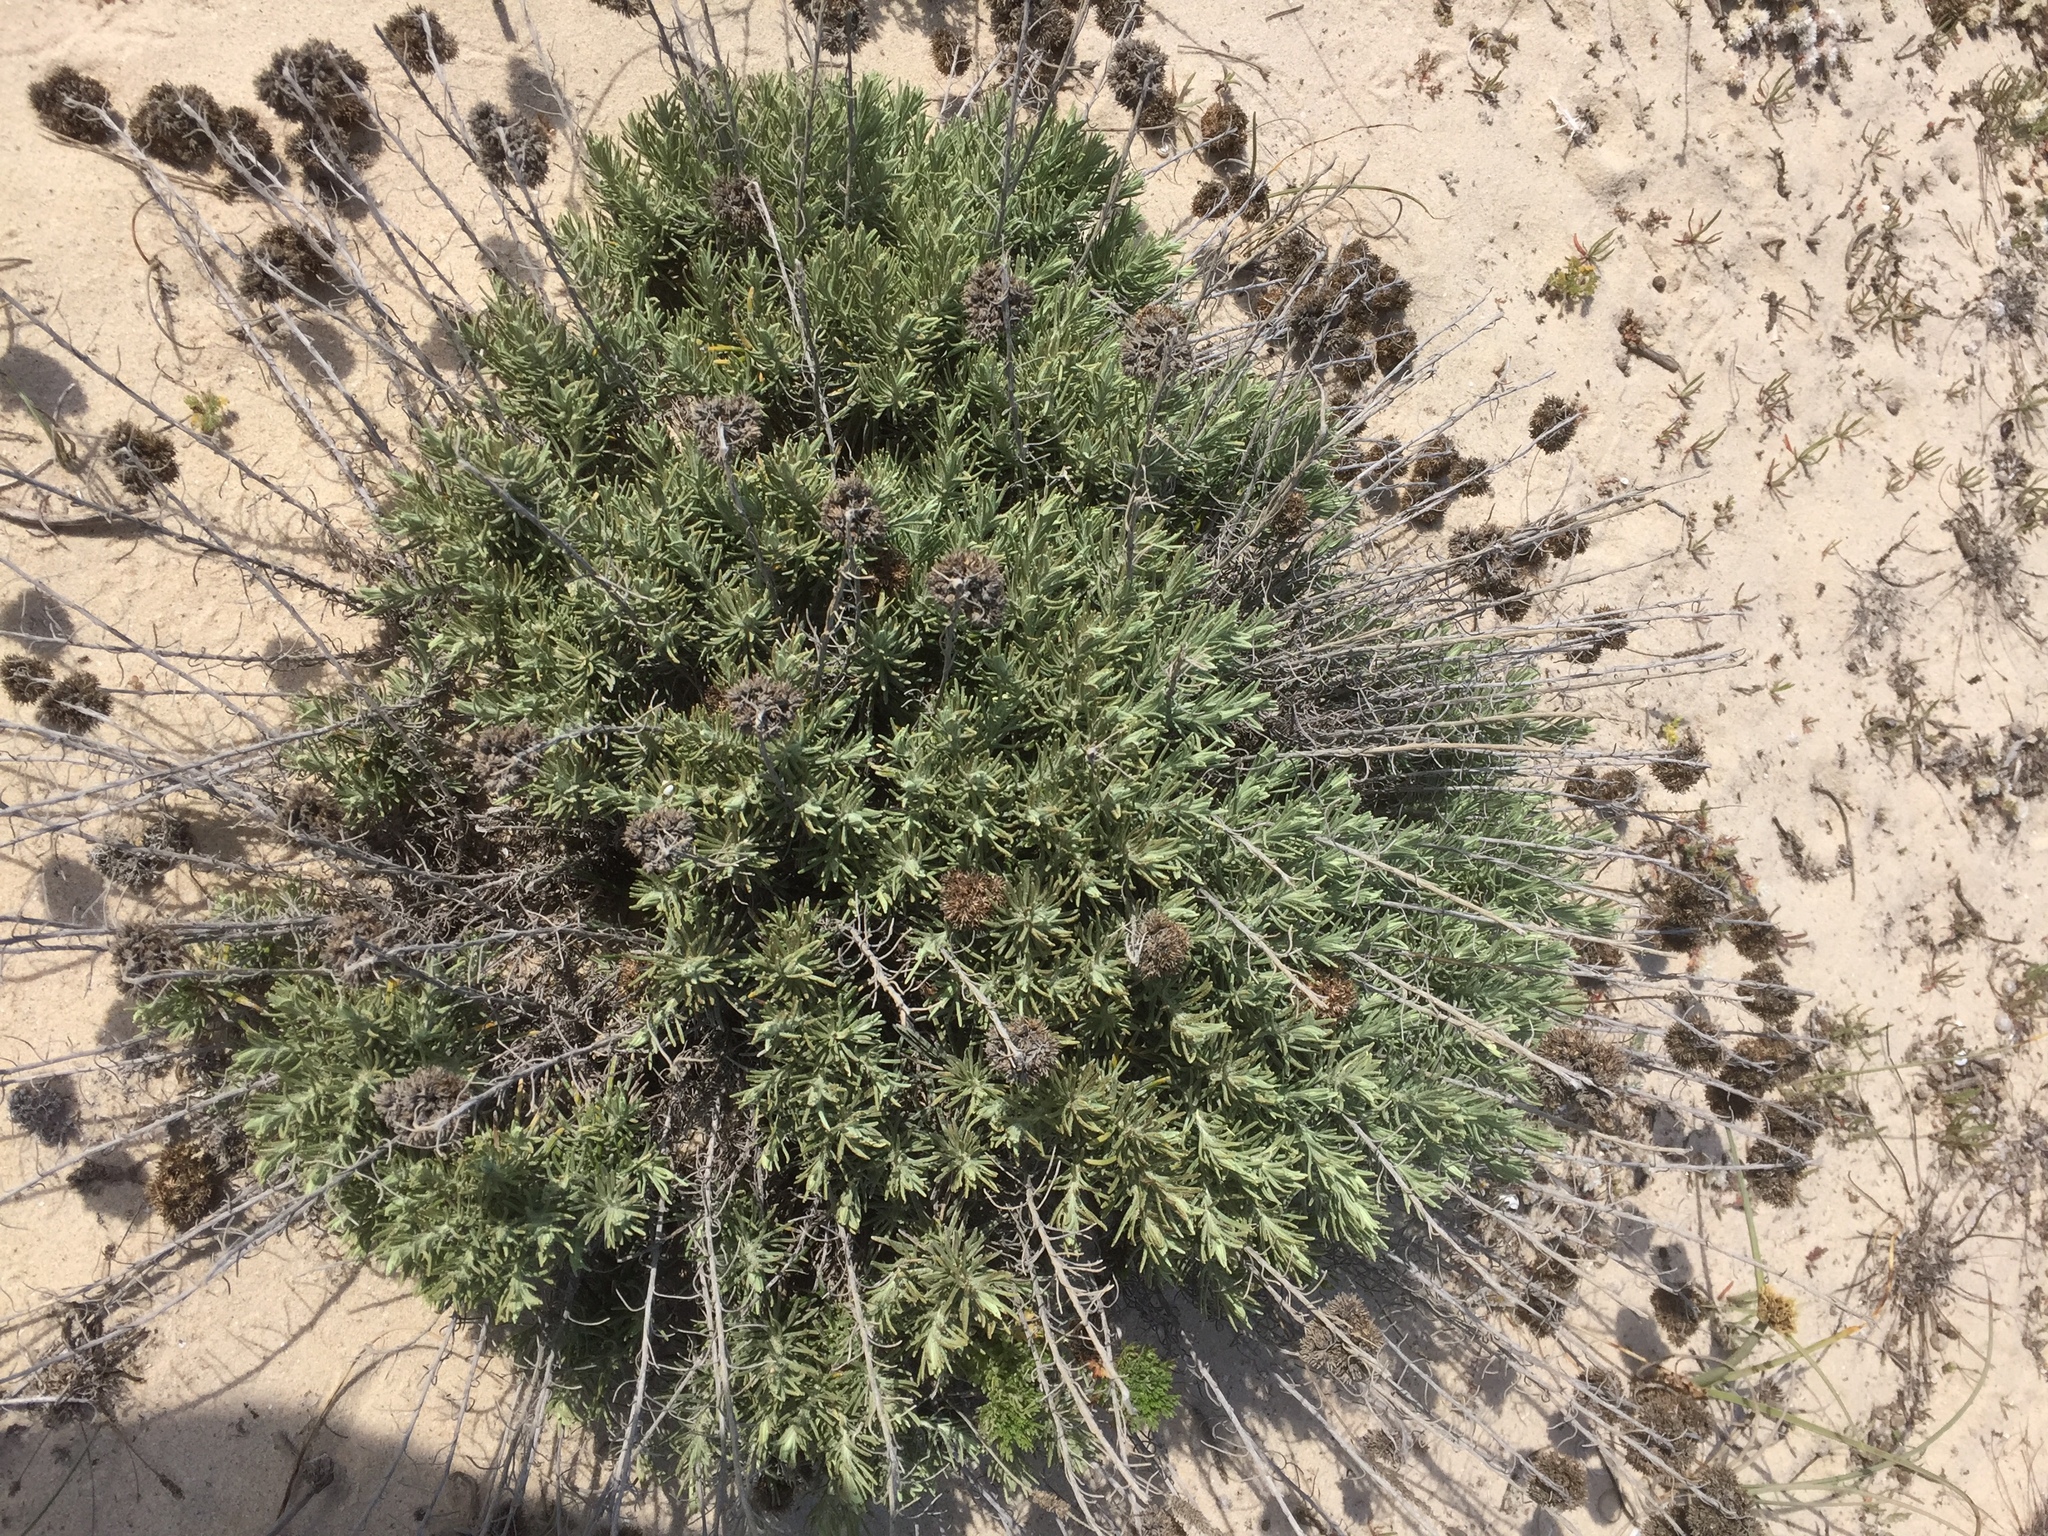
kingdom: Plantae
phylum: Tracheophyta
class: Magnoliopsida
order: Asterales
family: Asteraceae
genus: Helichrysum
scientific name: Helichrysum serotinum
